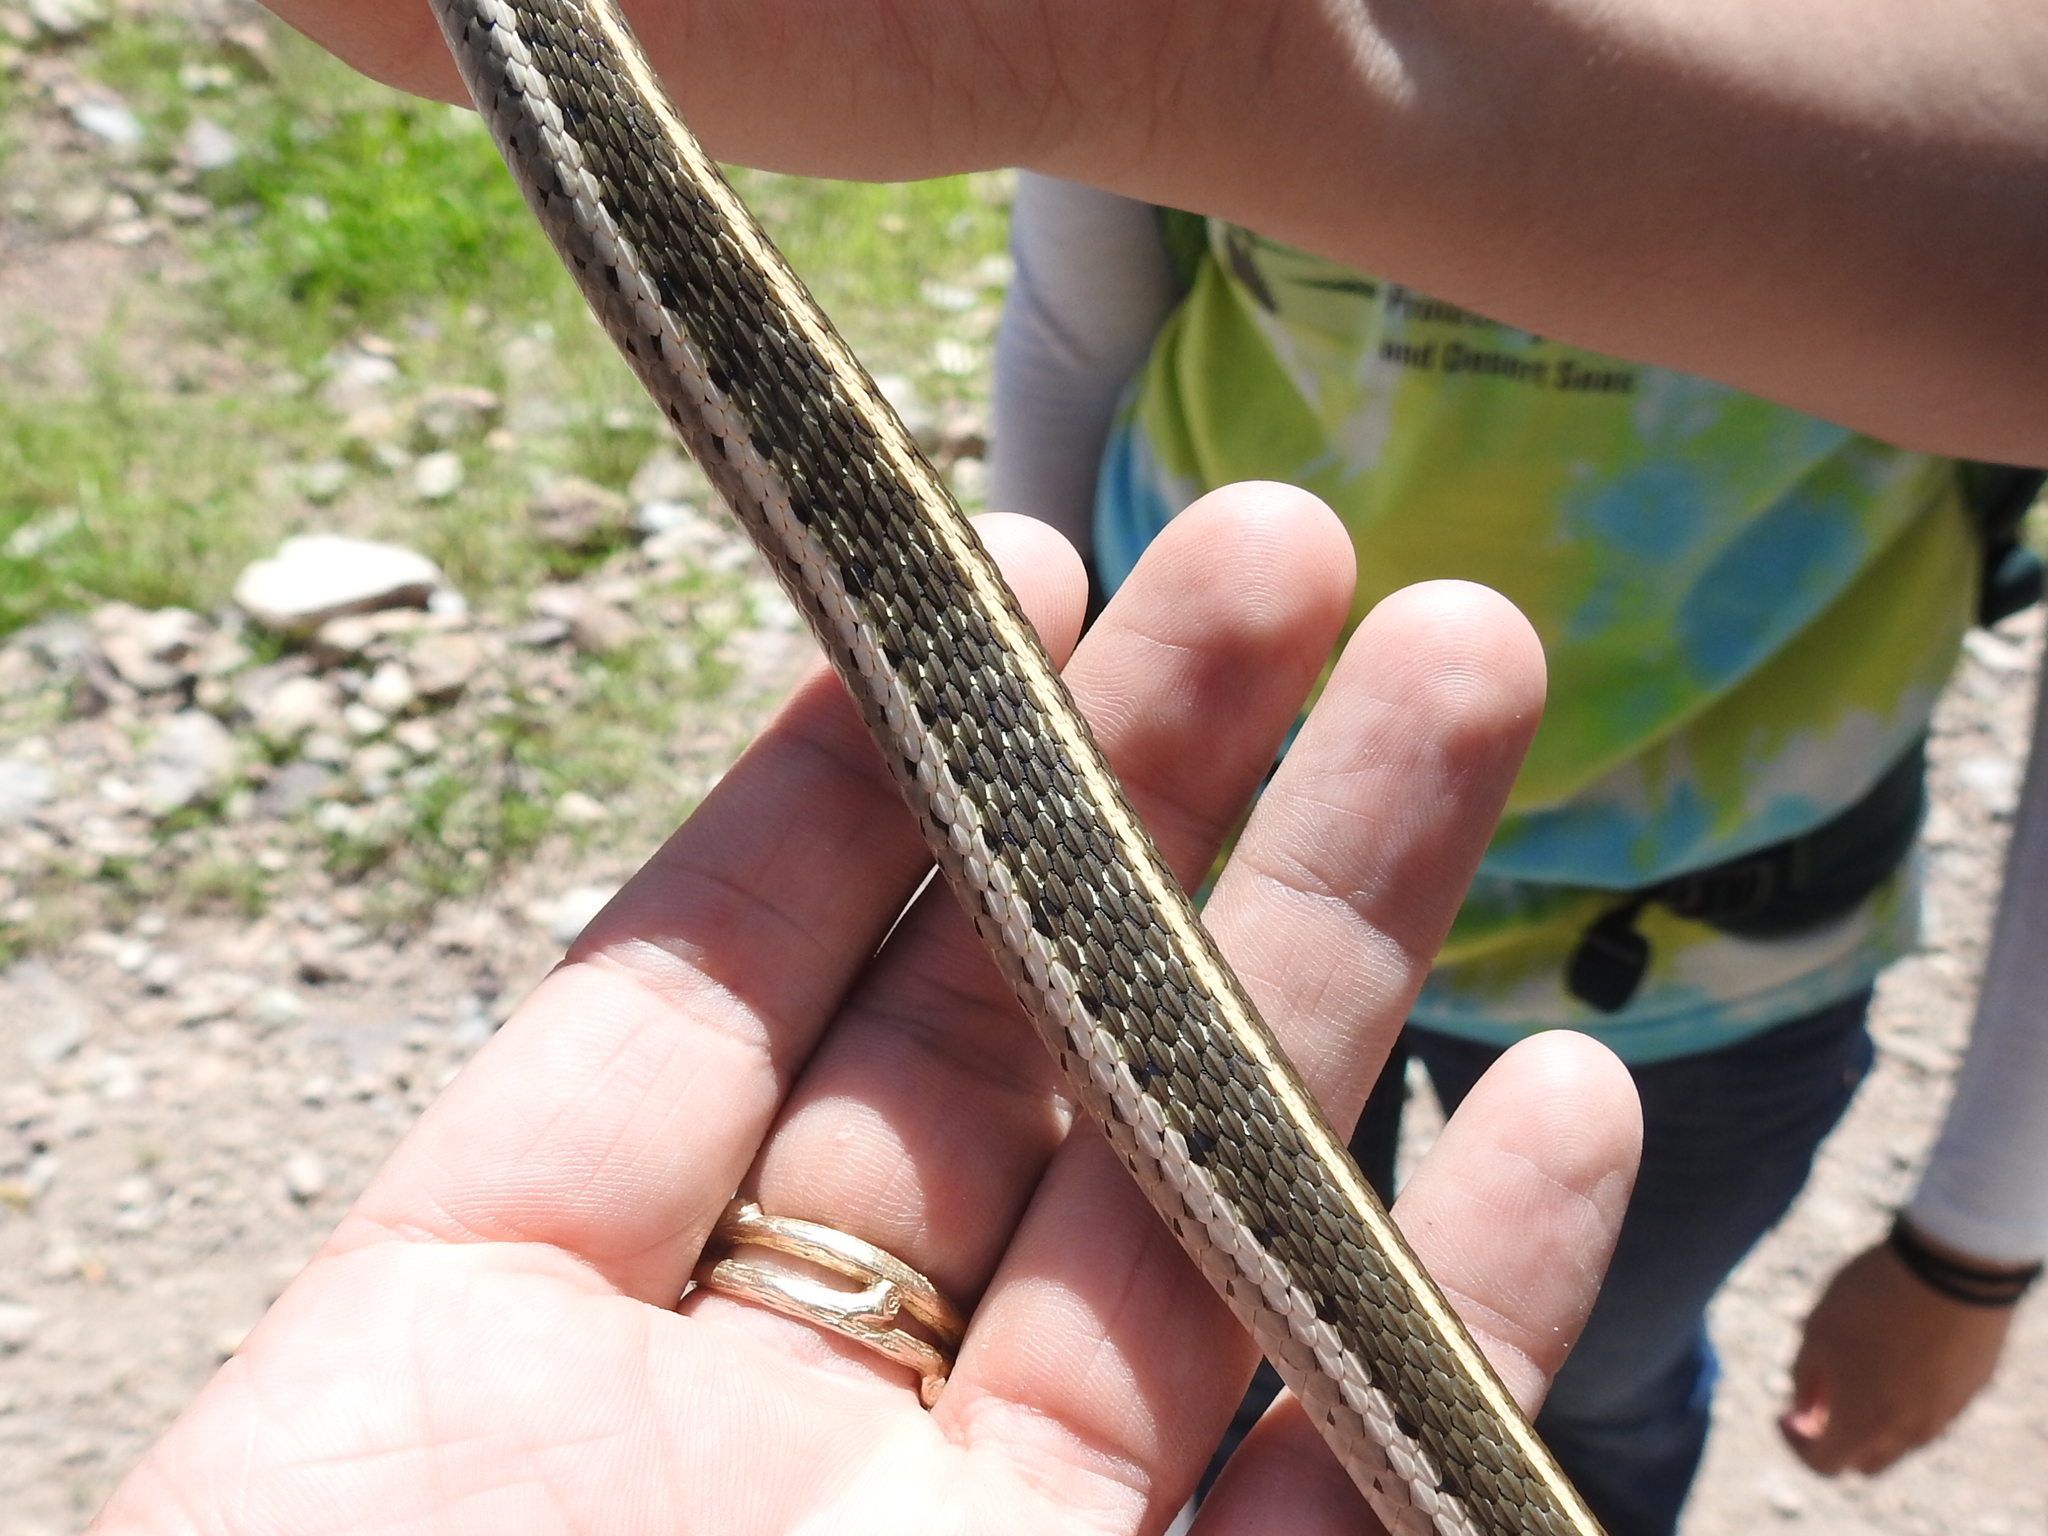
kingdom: Animalia
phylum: Chordata
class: Squamata
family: Colubridae
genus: Thamnophis
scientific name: Thamnophis cyrtopsis
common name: Black-necked gartersnake
